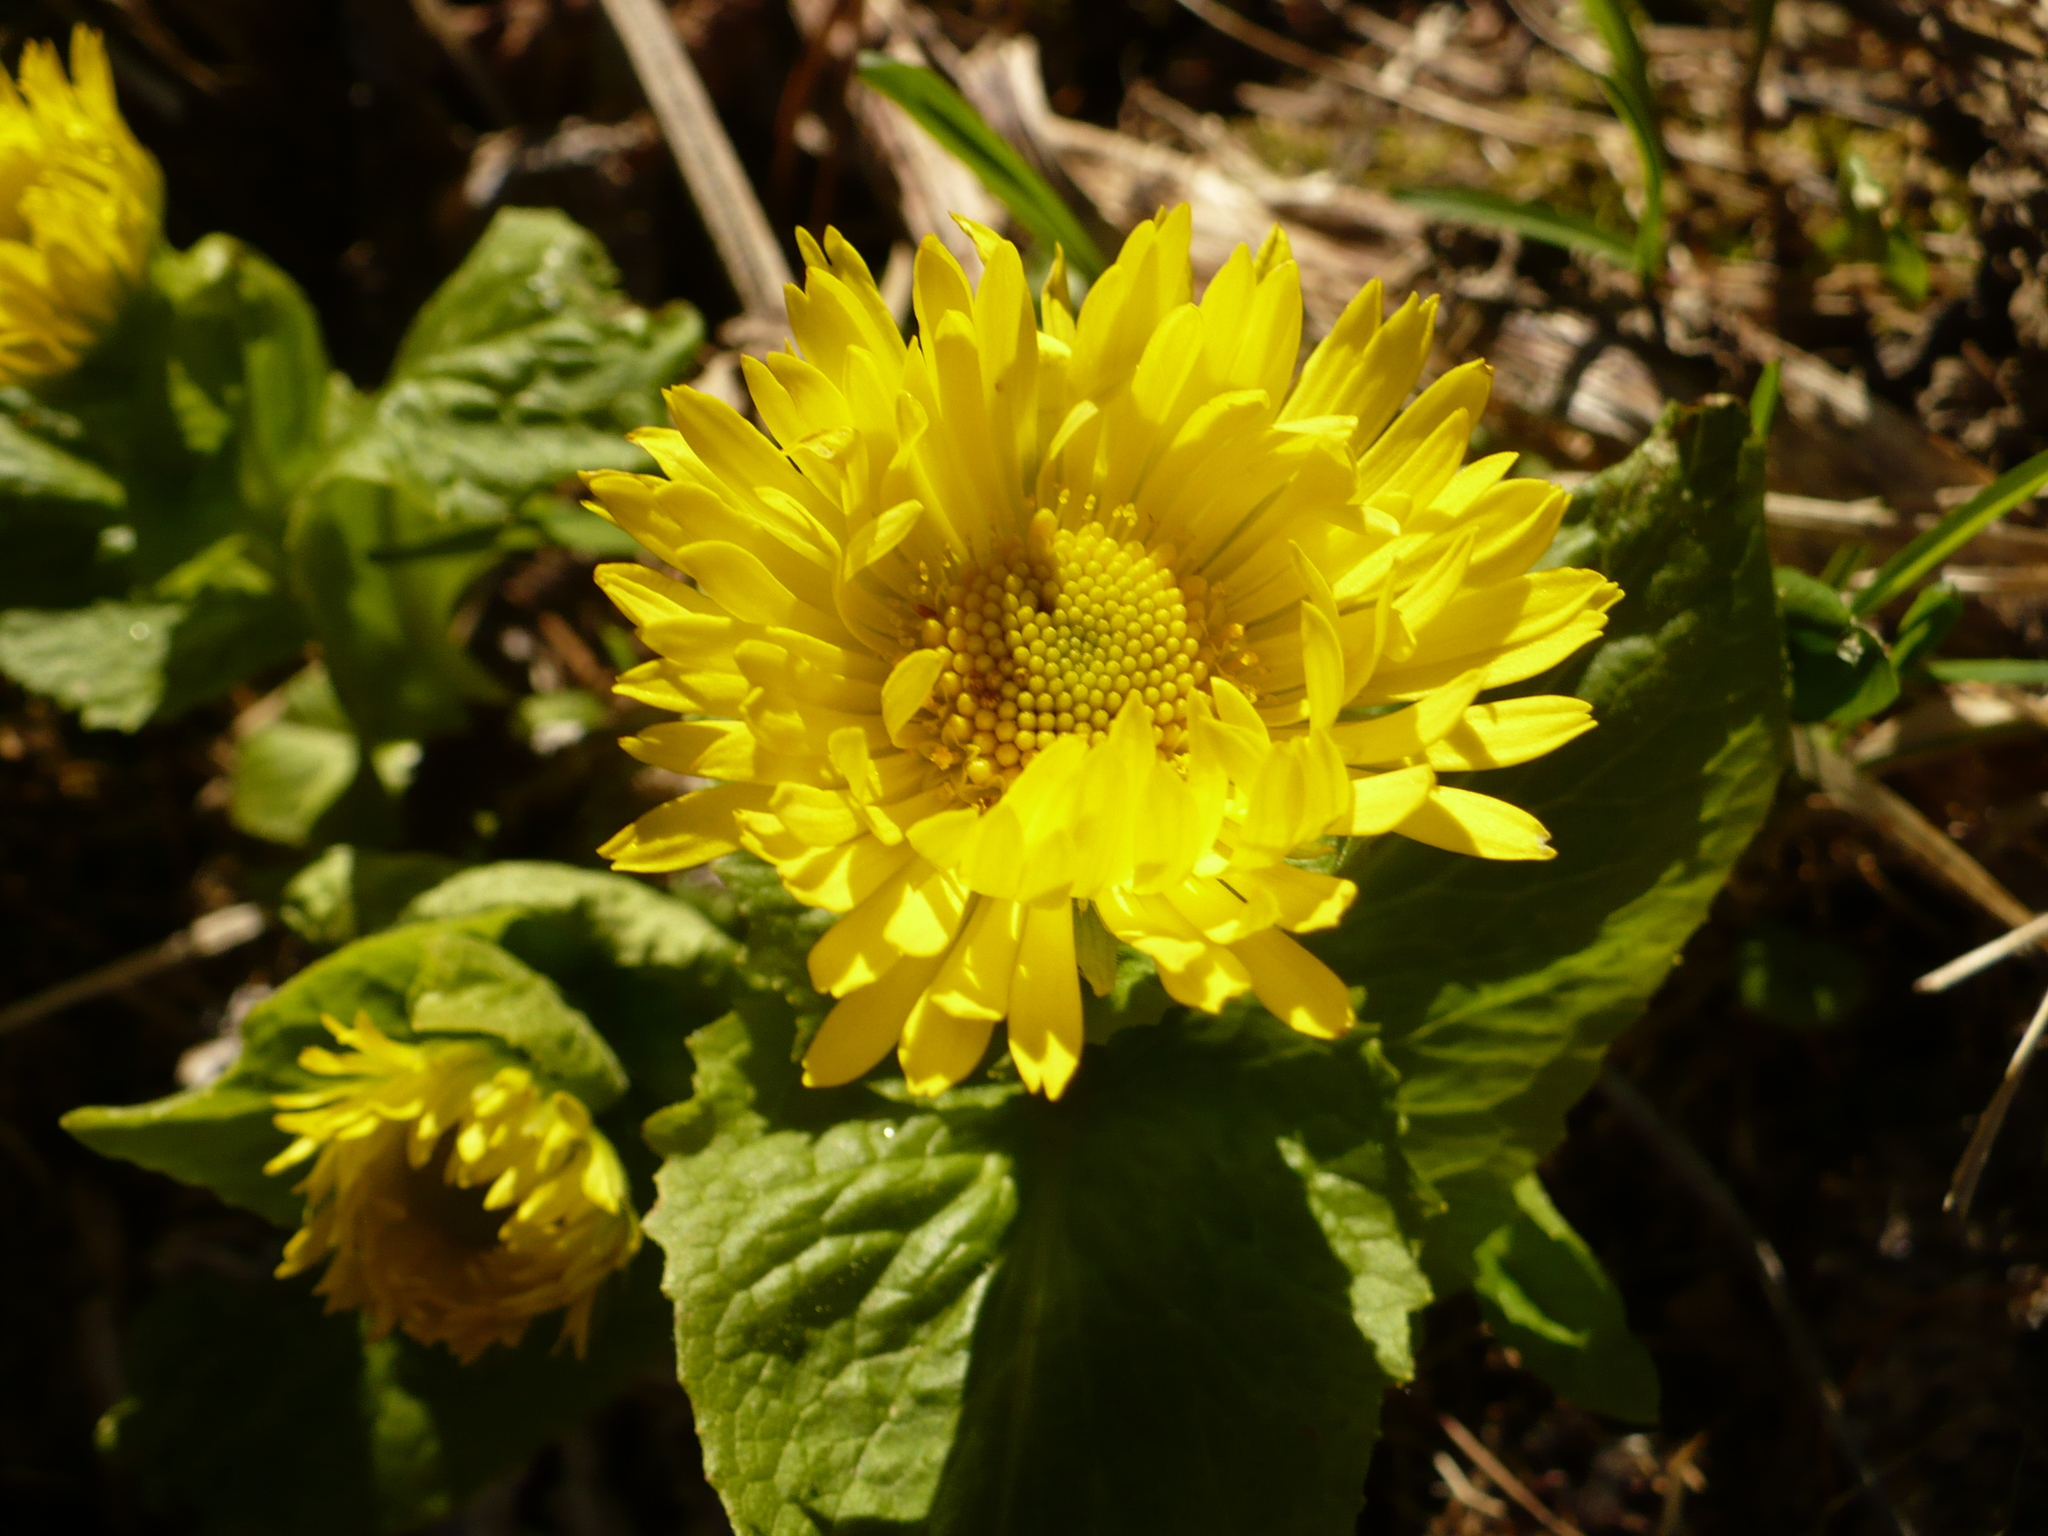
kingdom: Plantae
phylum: Tracheophyta
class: Magnoliopsida
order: Asterales
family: Asteraceae
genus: Doronicum
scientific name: Doronicum altaicum
